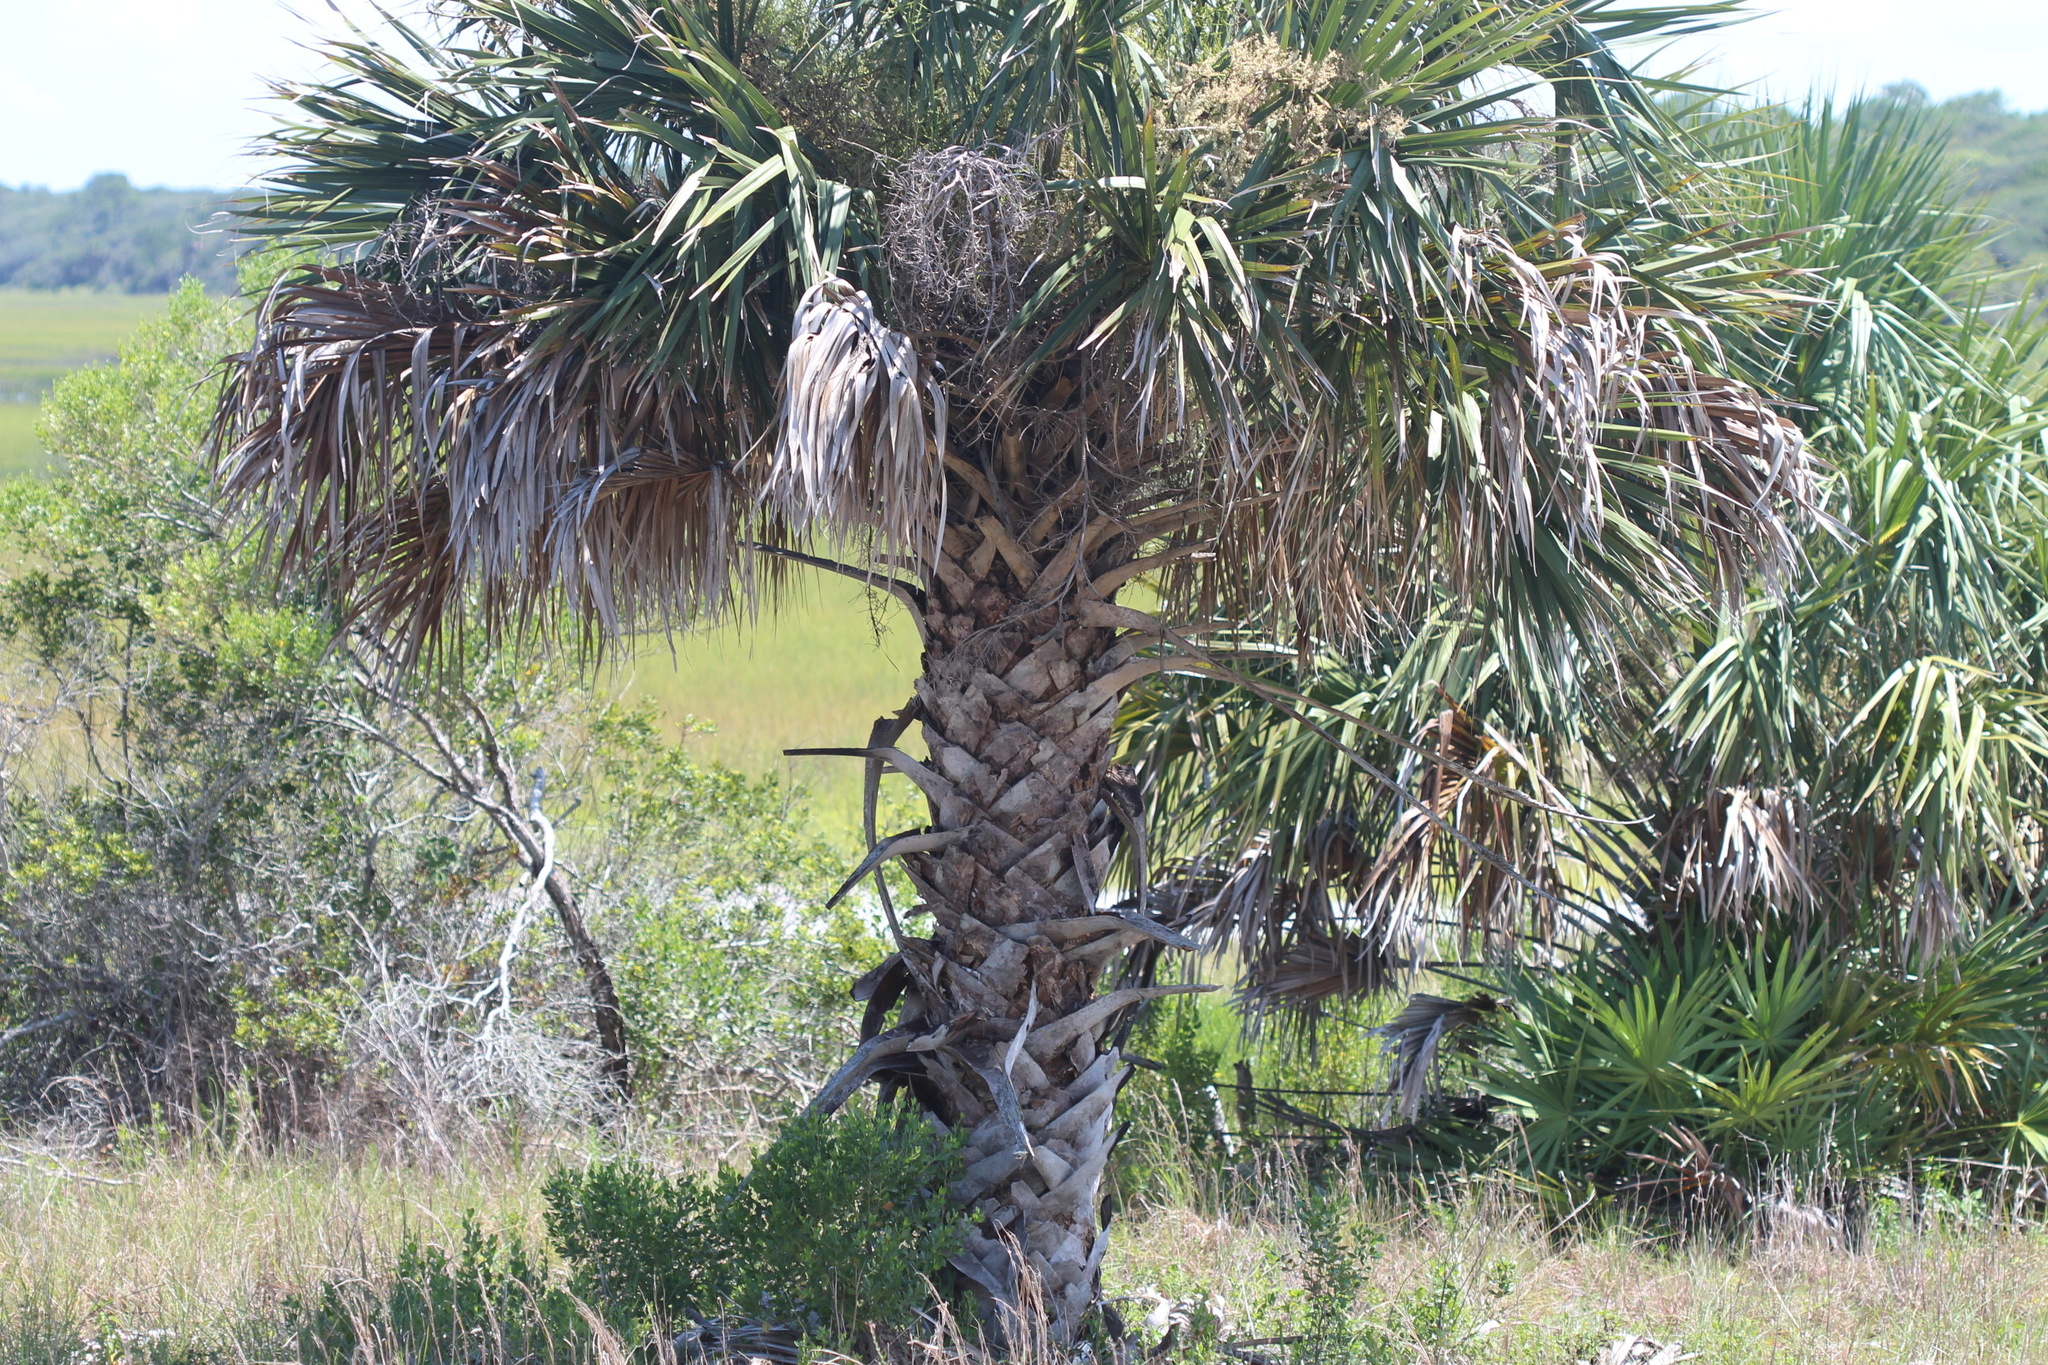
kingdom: Plantae
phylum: Tracheophyta
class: Liliopsida
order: Arecales
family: Arecaceae
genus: Sabal
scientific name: Sabal palmetto
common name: Blue palmetto
